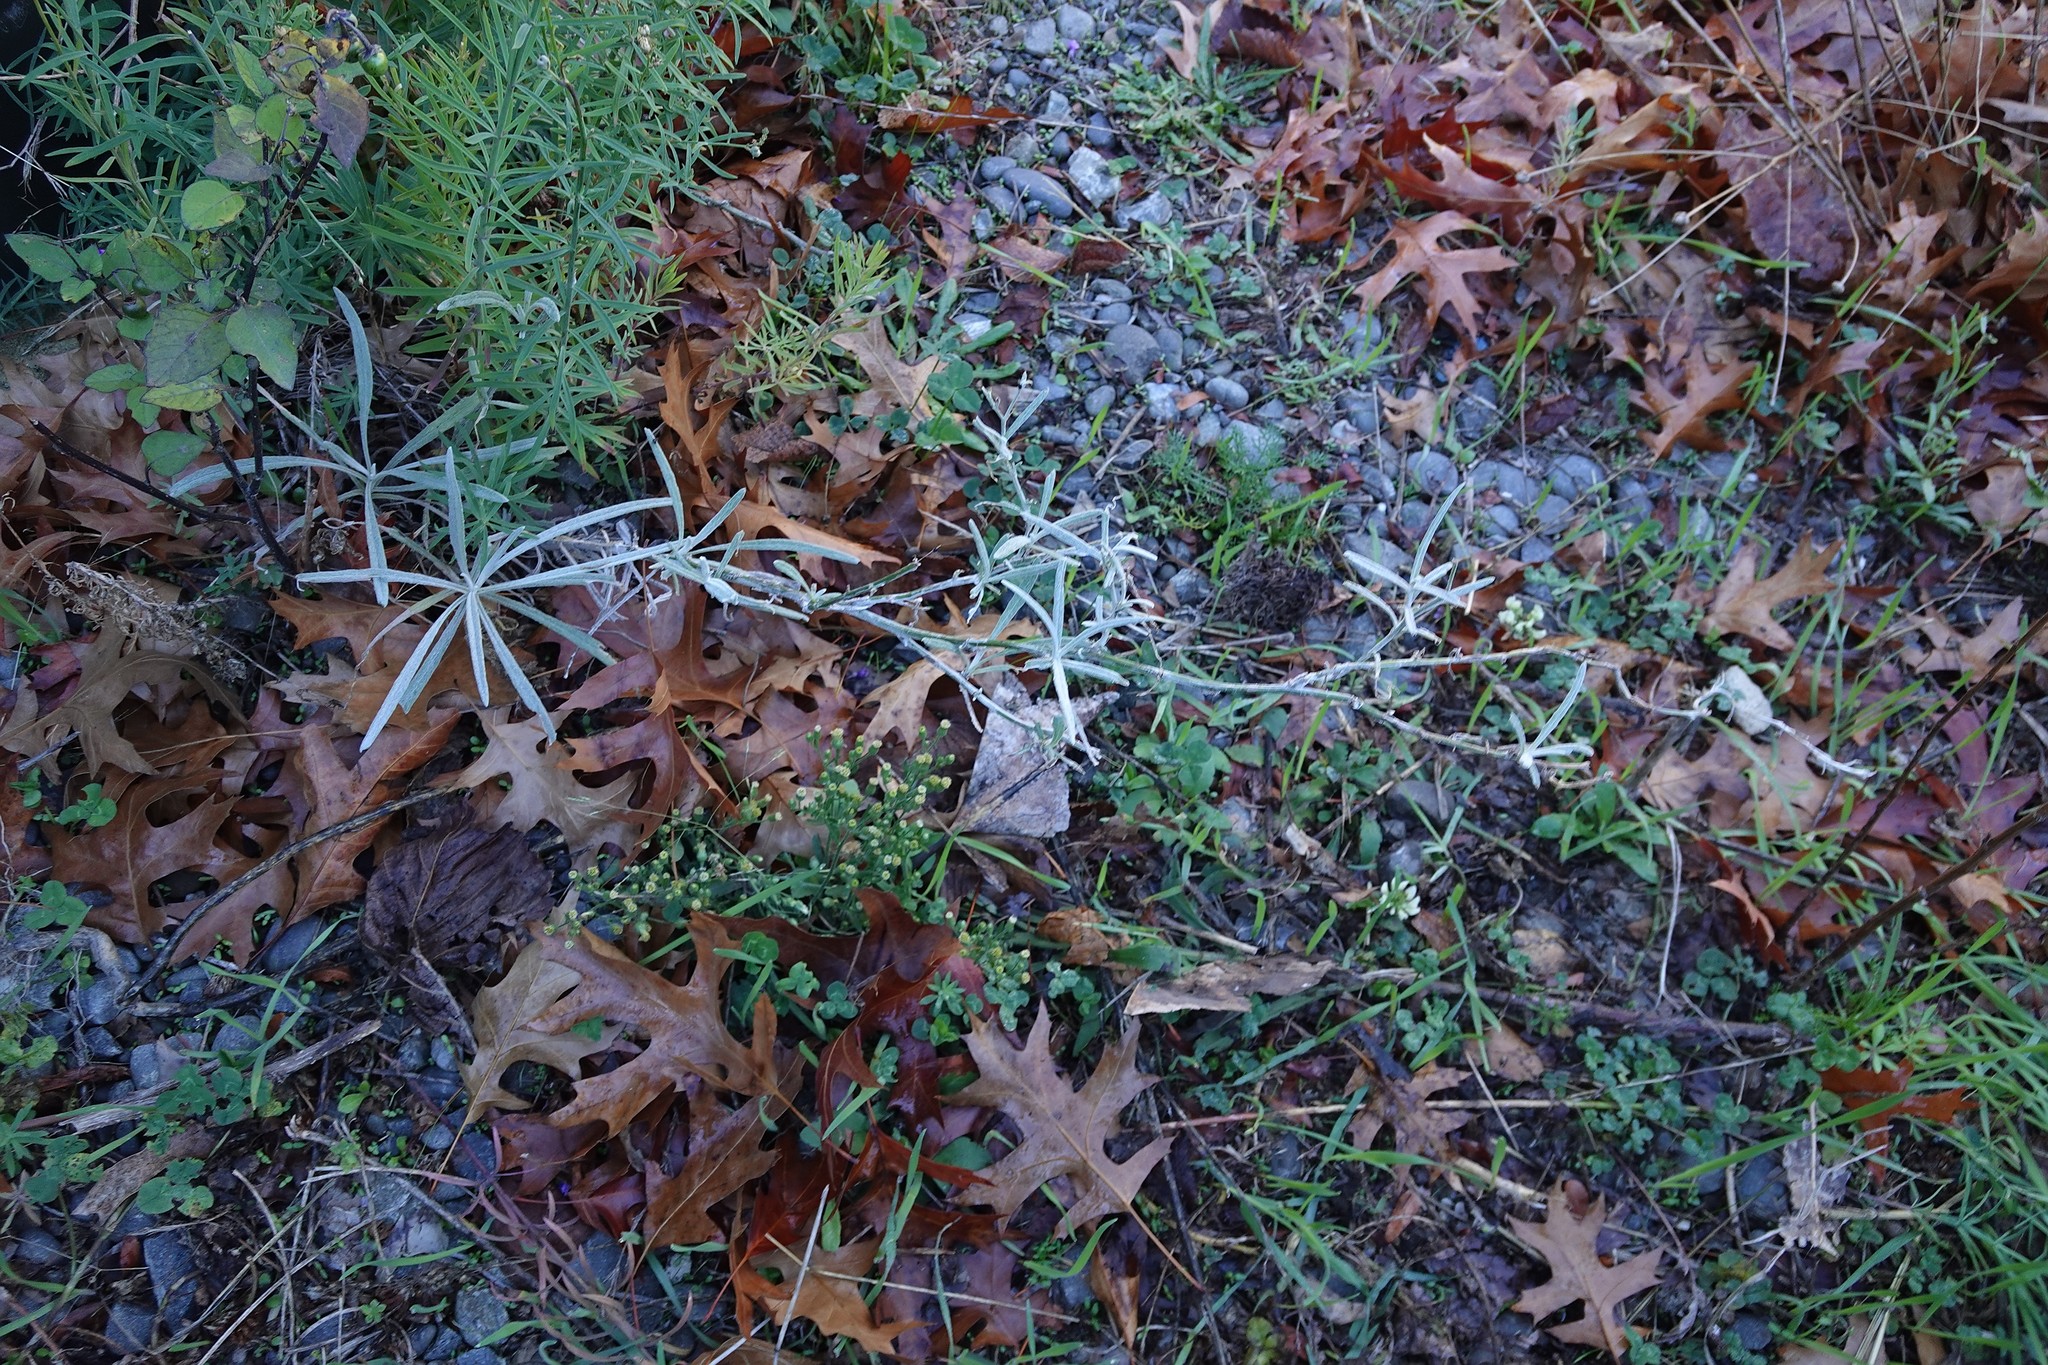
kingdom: Plantae
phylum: Tracheophyta
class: Magnoliopsida
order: Asterales
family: Asteraceae
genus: Senecio
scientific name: Senecio quadridentatus
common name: Cotton fireweed
